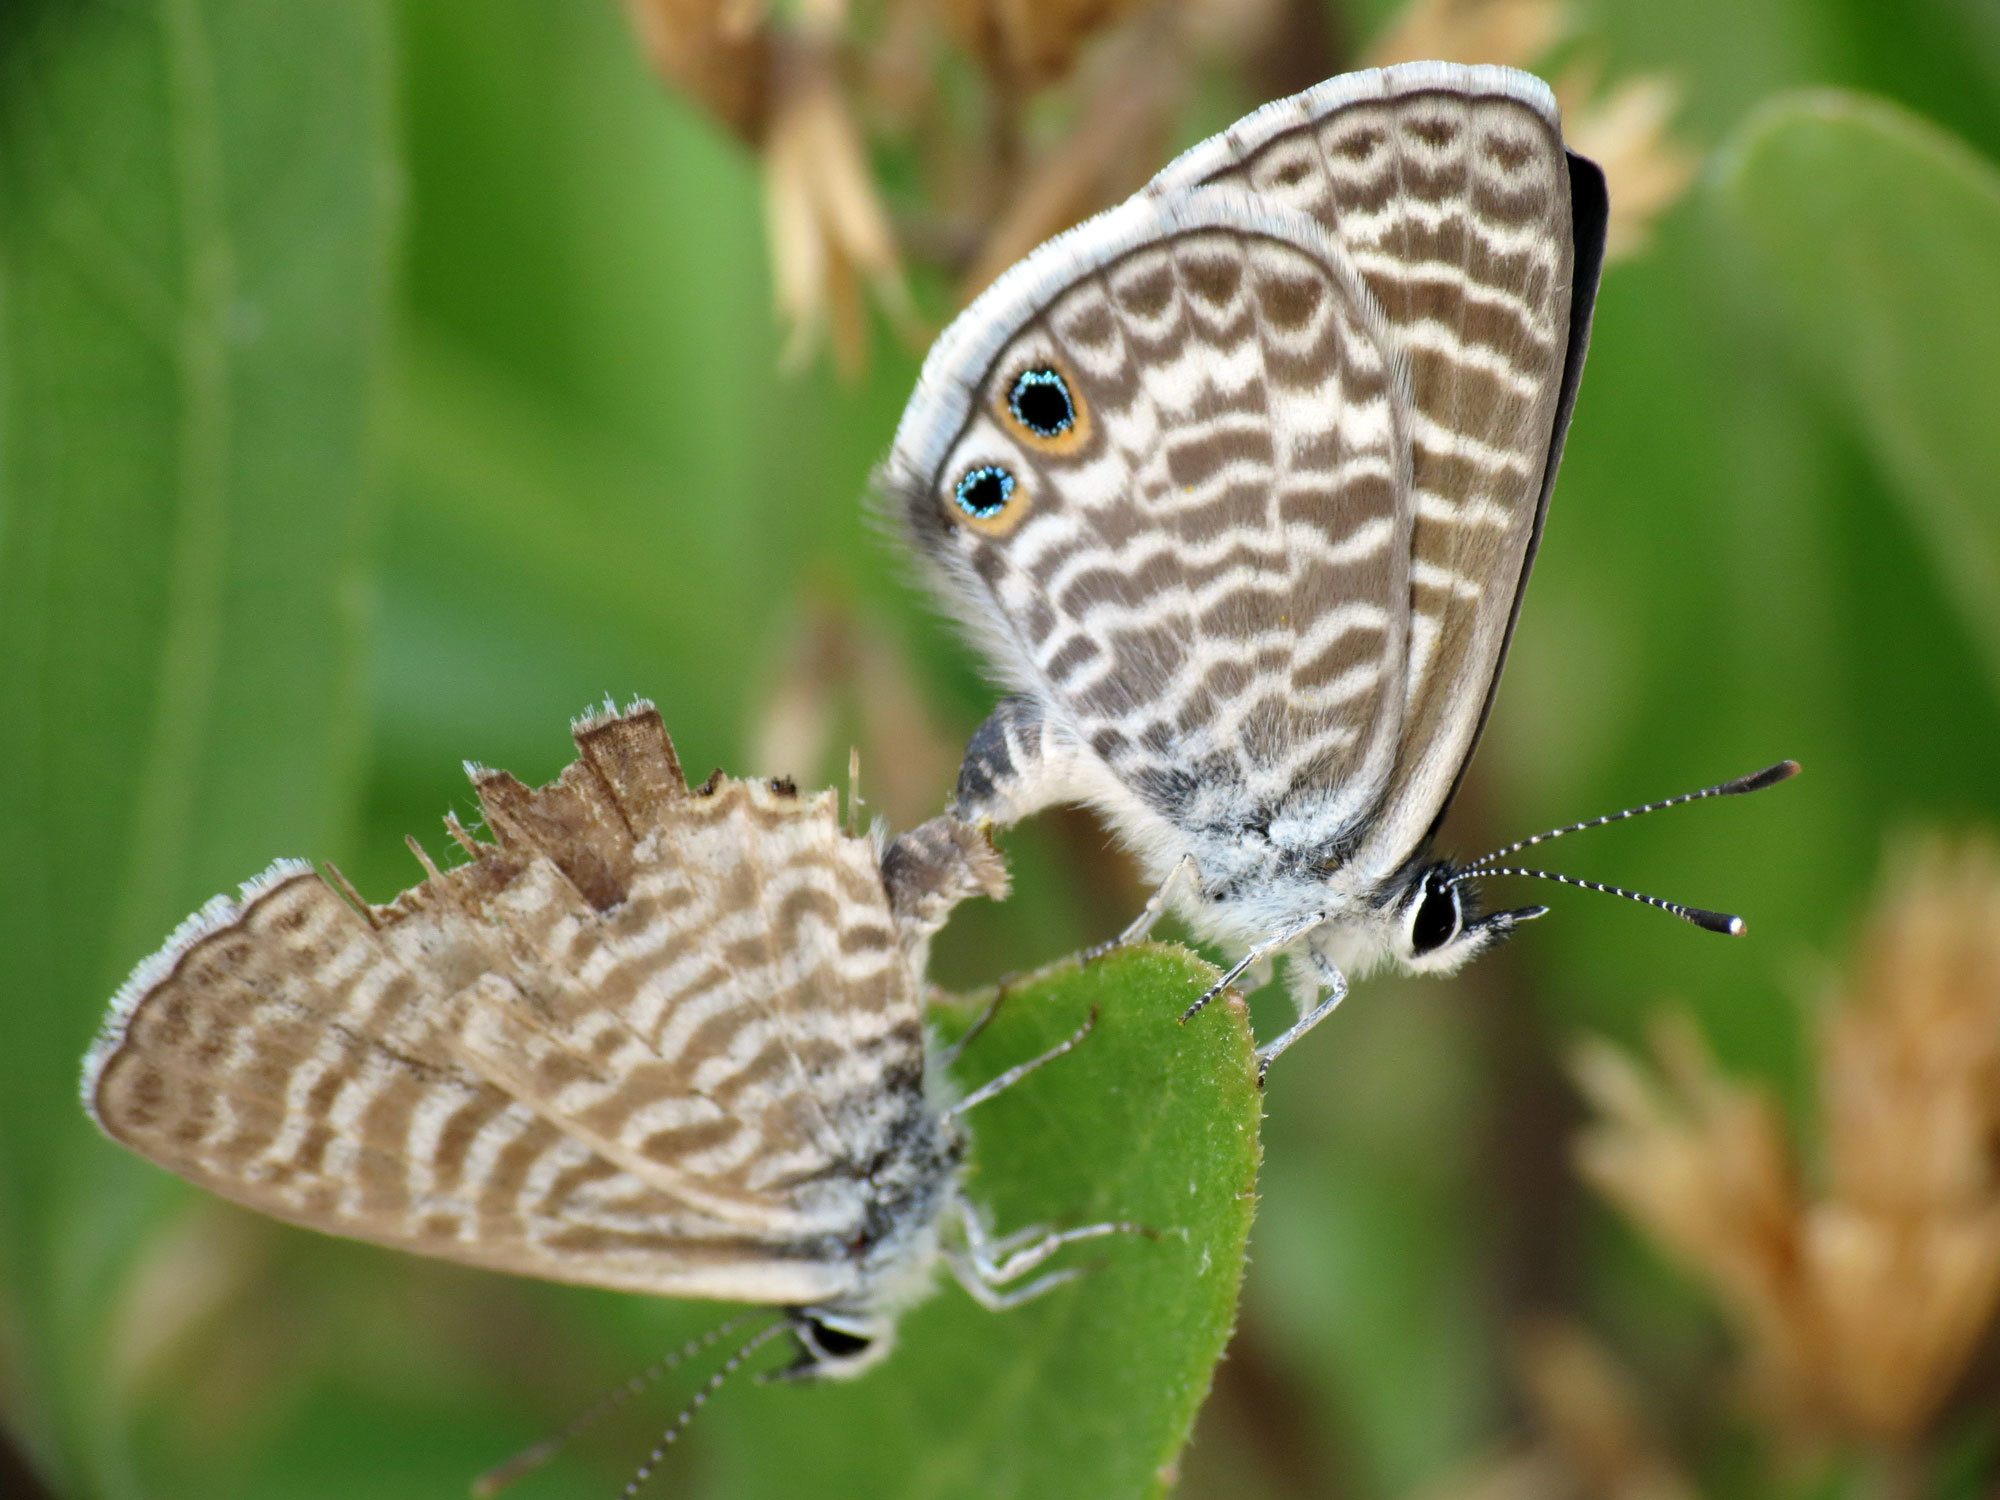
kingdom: Animalia
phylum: Arthropoda
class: Insecta
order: Lepidoptera
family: Lycaenidae
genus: Leptotes
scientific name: Leptotes marina
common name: Marine blue
